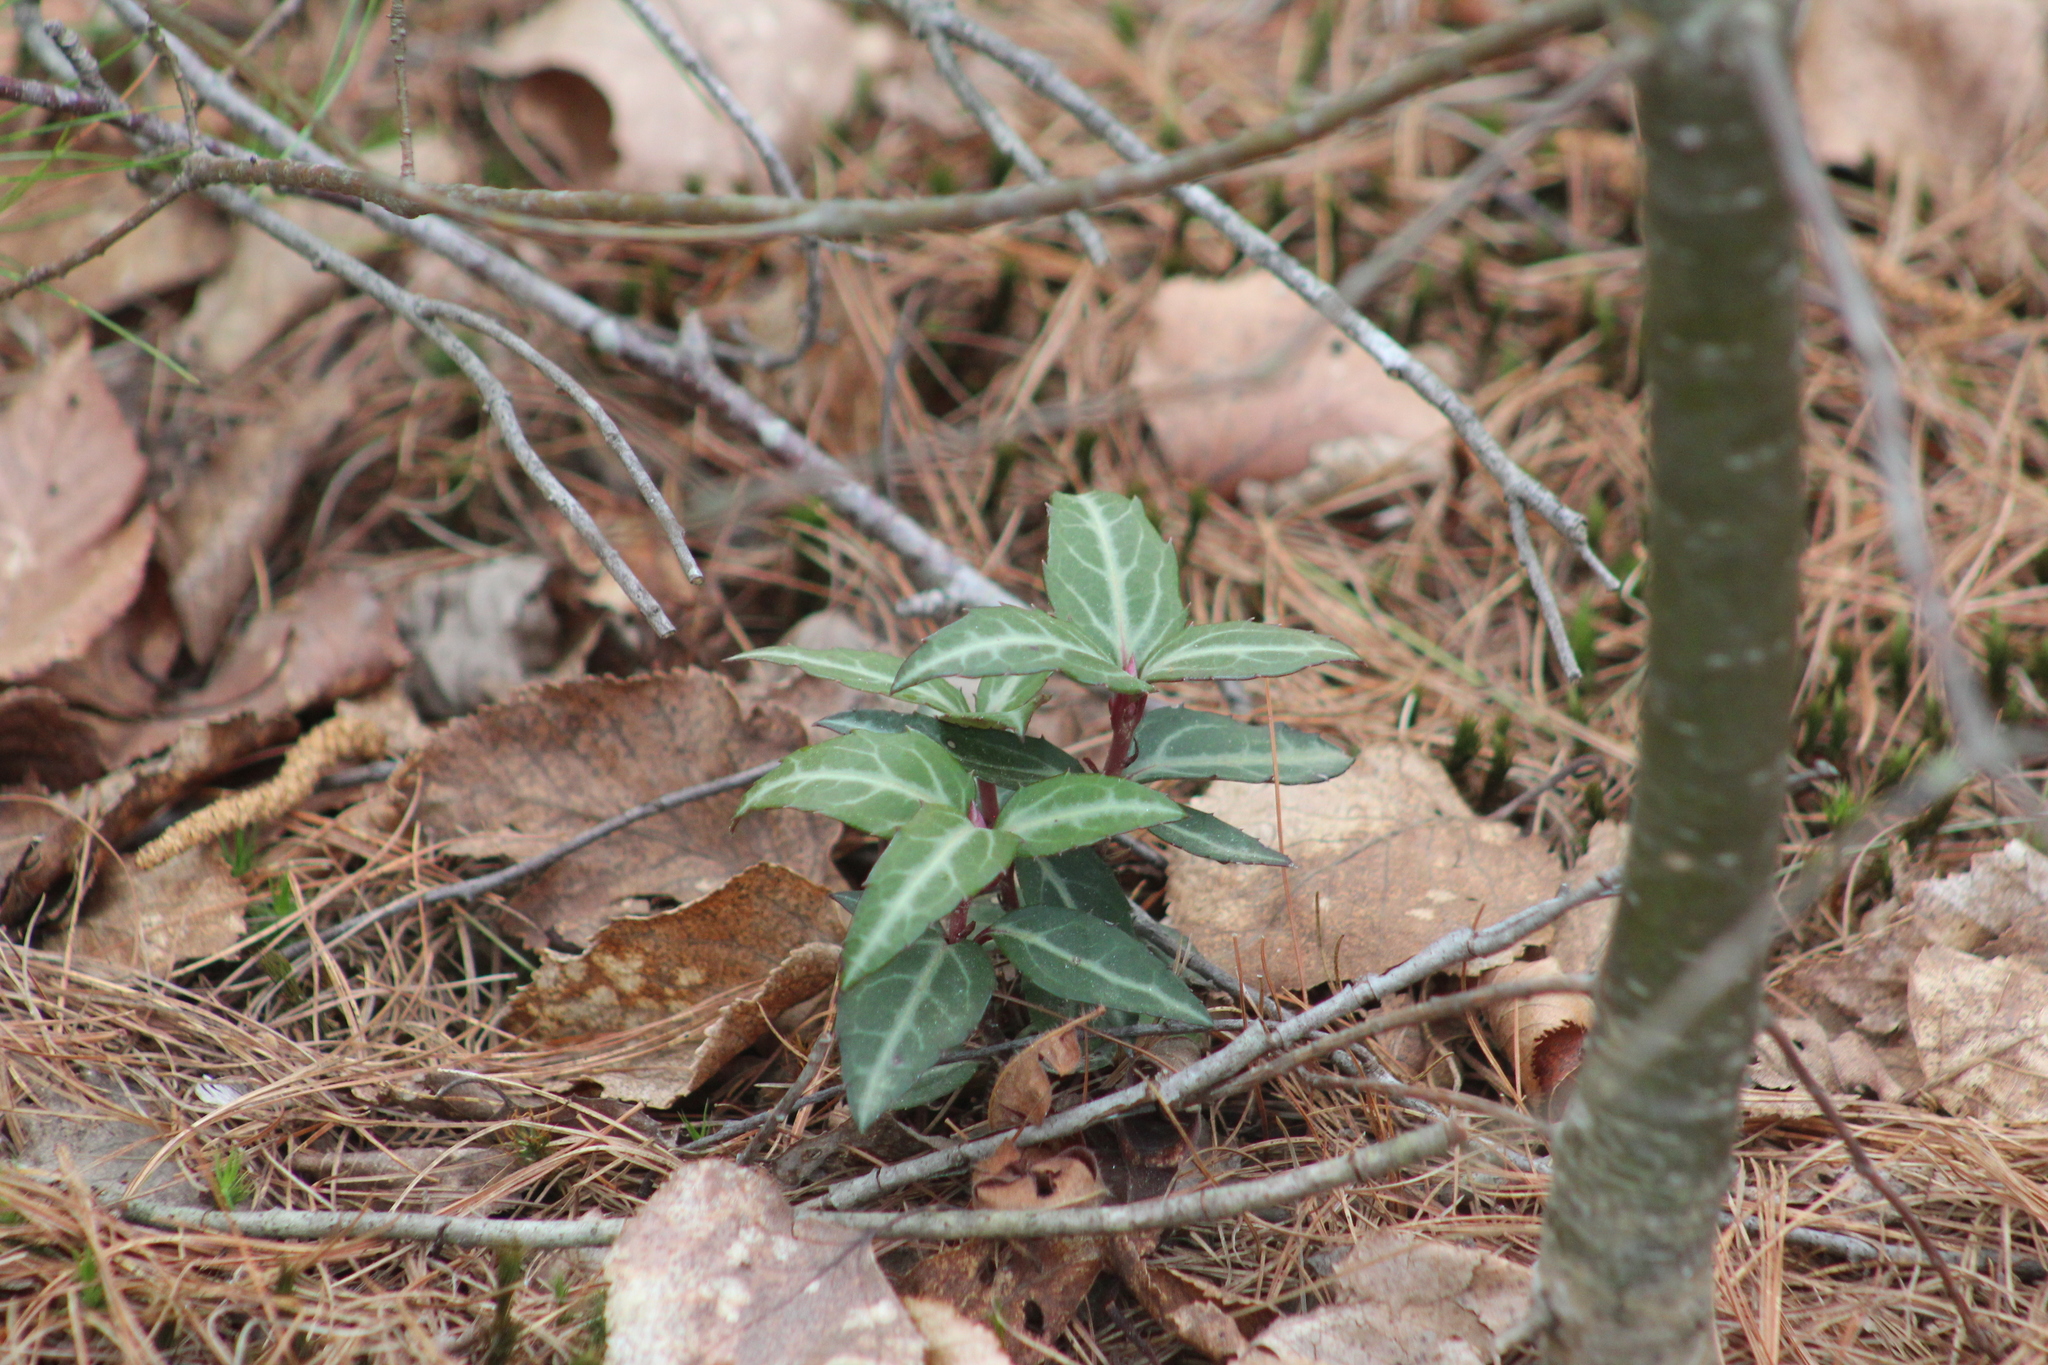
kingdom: Plantae
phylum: Tracheophyta
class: Magnoliopsida
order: Ericales
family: Ericaceae
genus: Chimaphila
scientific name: Chimaphila maculata
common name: Spotted pipsissewa
